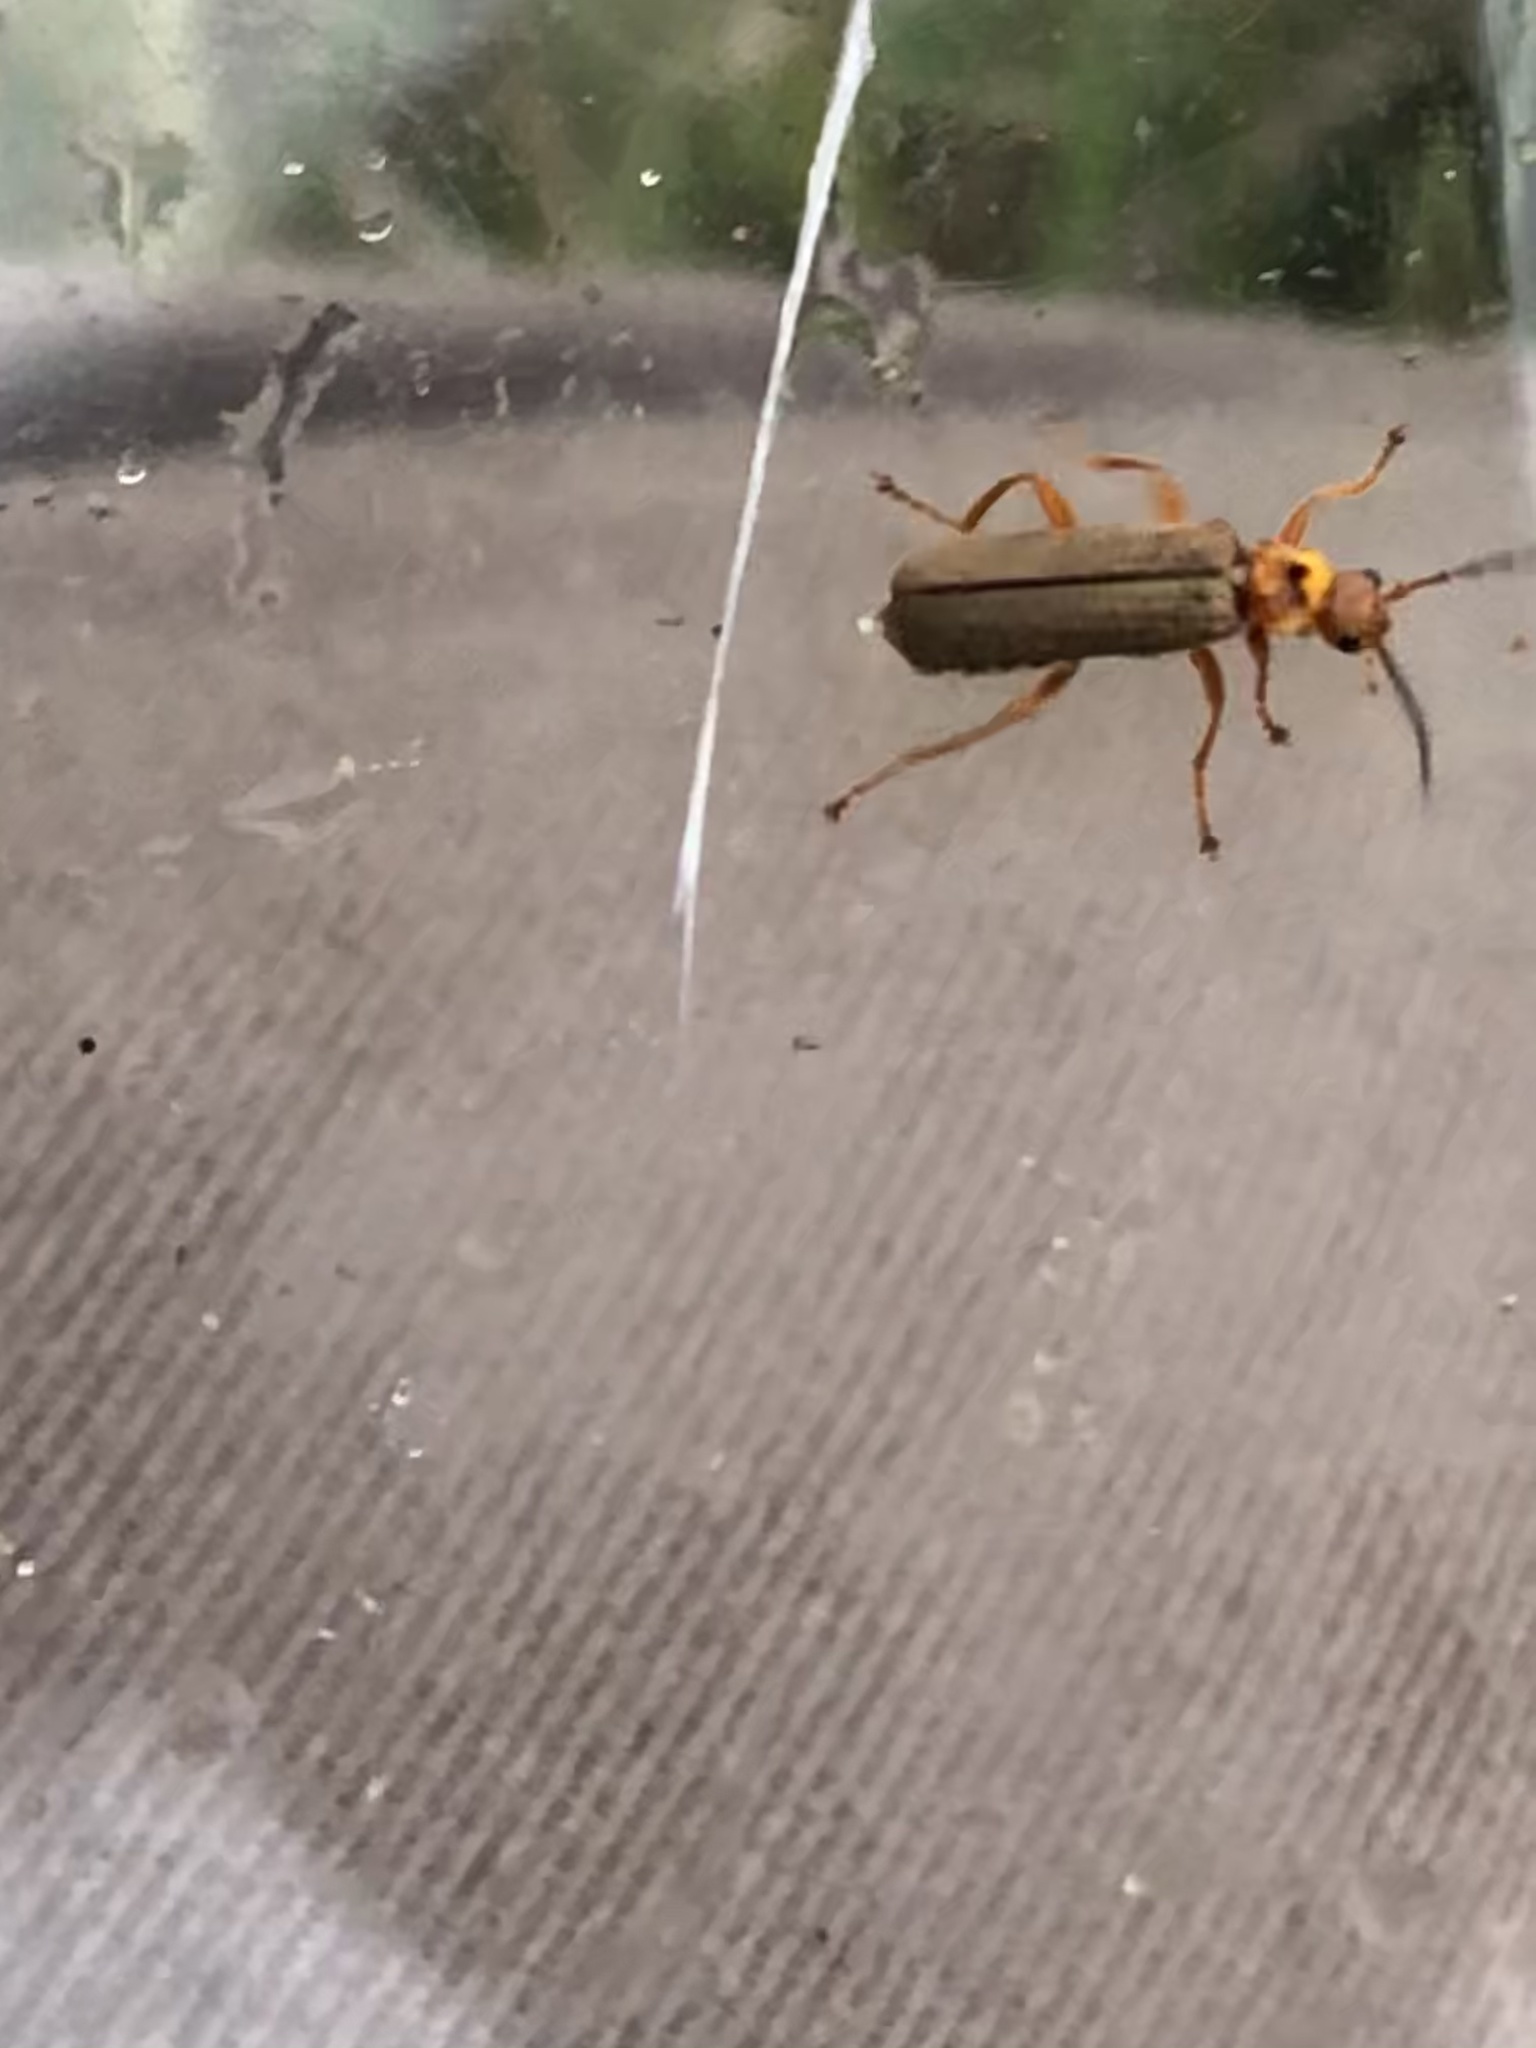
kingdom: Animalia
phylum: Arthropoda
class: Insecta
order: Coleoptera
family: Cantharidae
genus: Cultellunguis
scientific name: Cultellunguis larvalis
